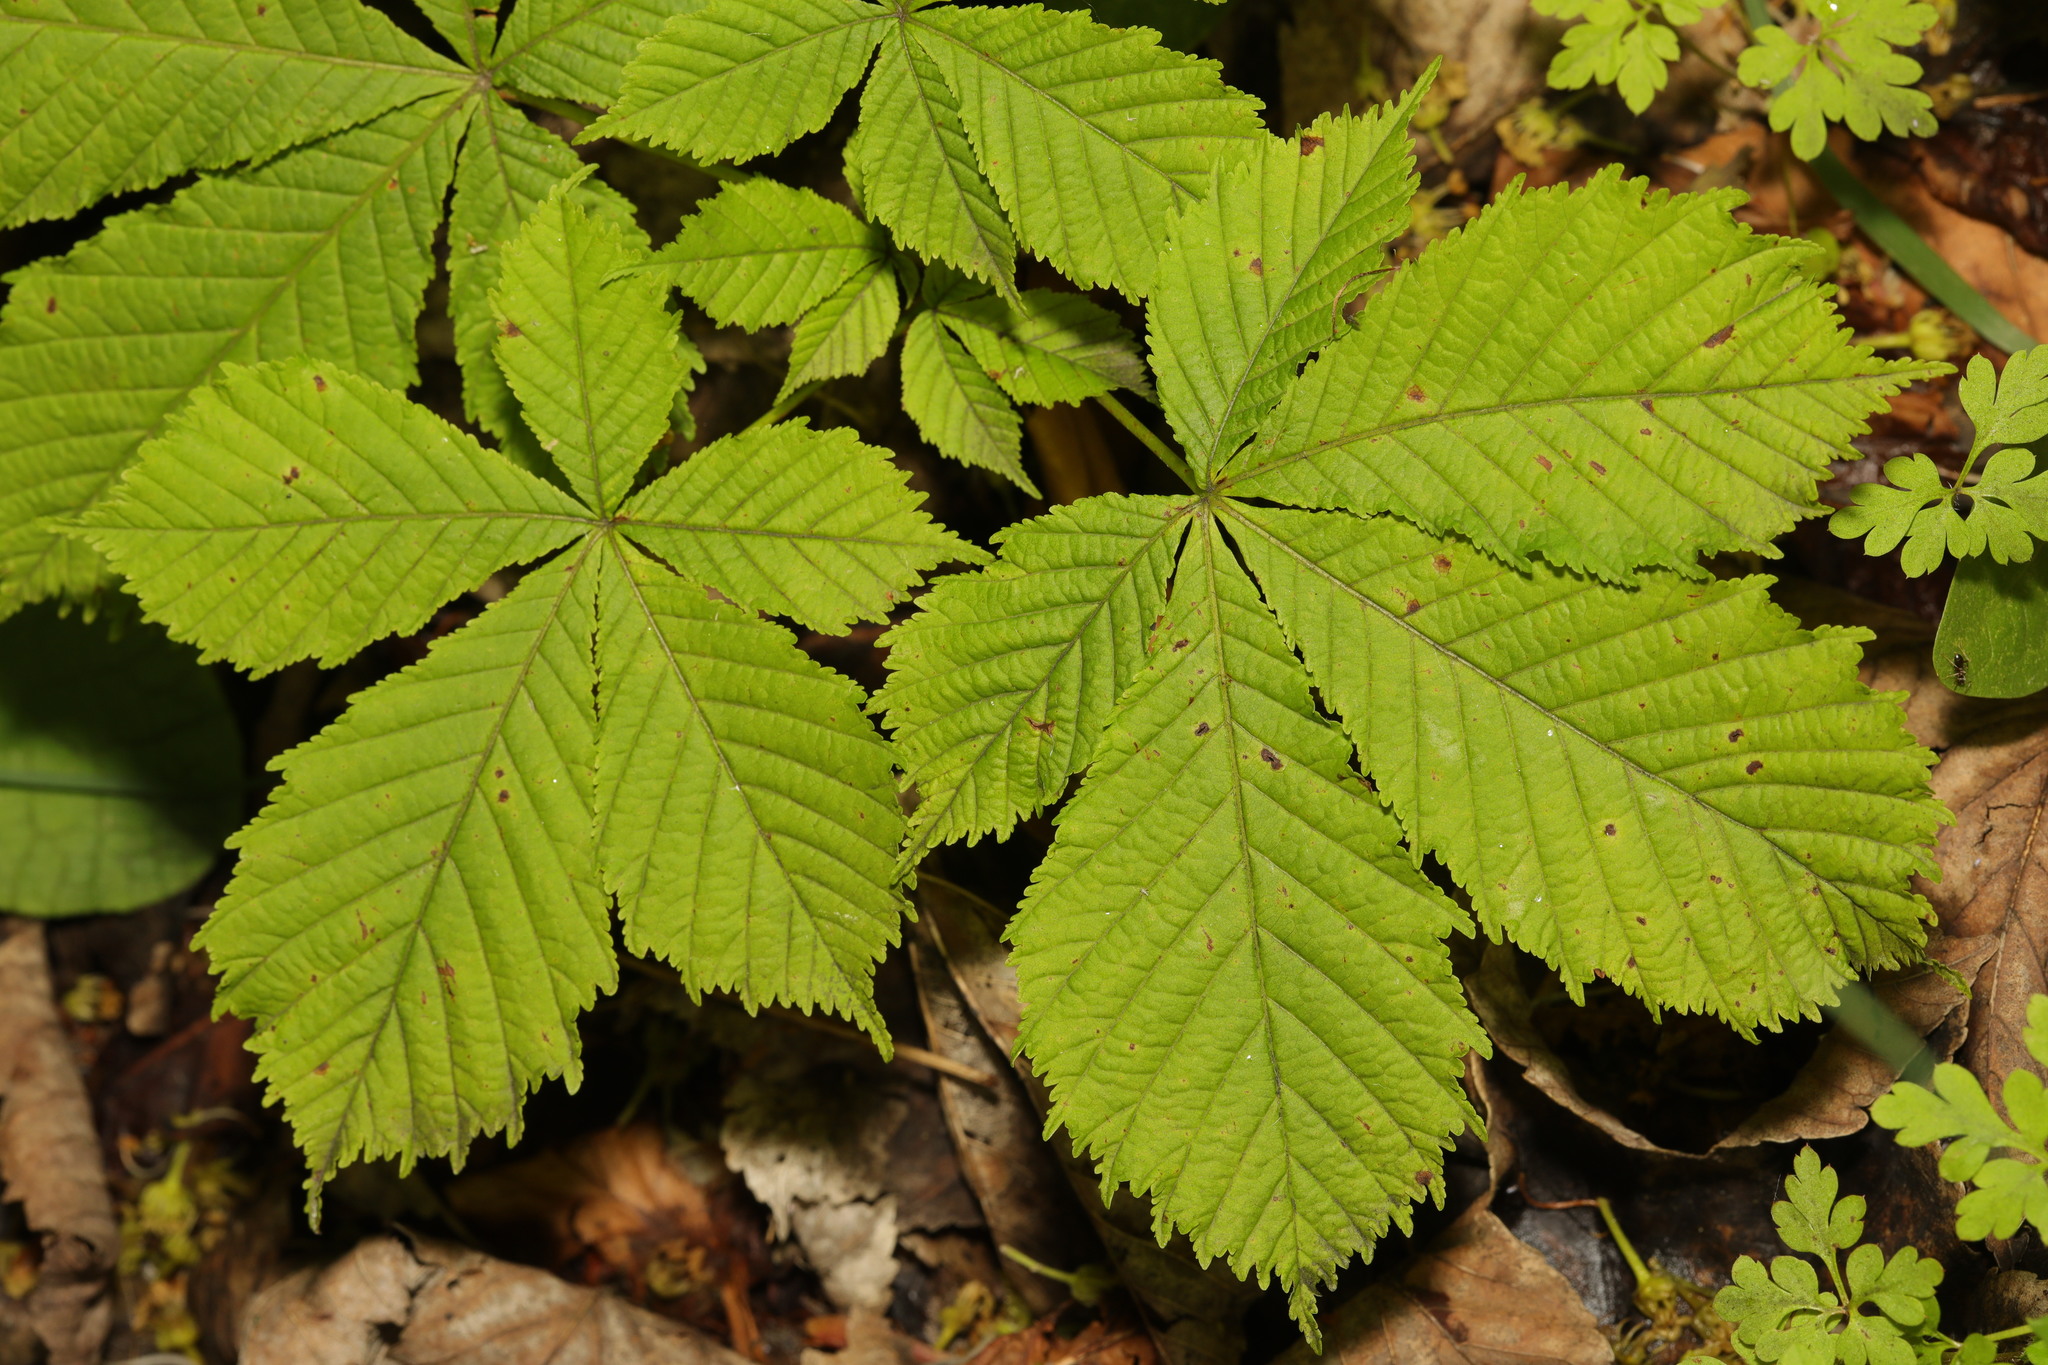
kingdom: Plantae
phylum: Tracheophyta
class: Magnoliopsida
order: Sapindales
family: Sapindaceae
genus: Aesculus
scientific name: Aesculus hippocastanum
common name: Horse-chestnut
